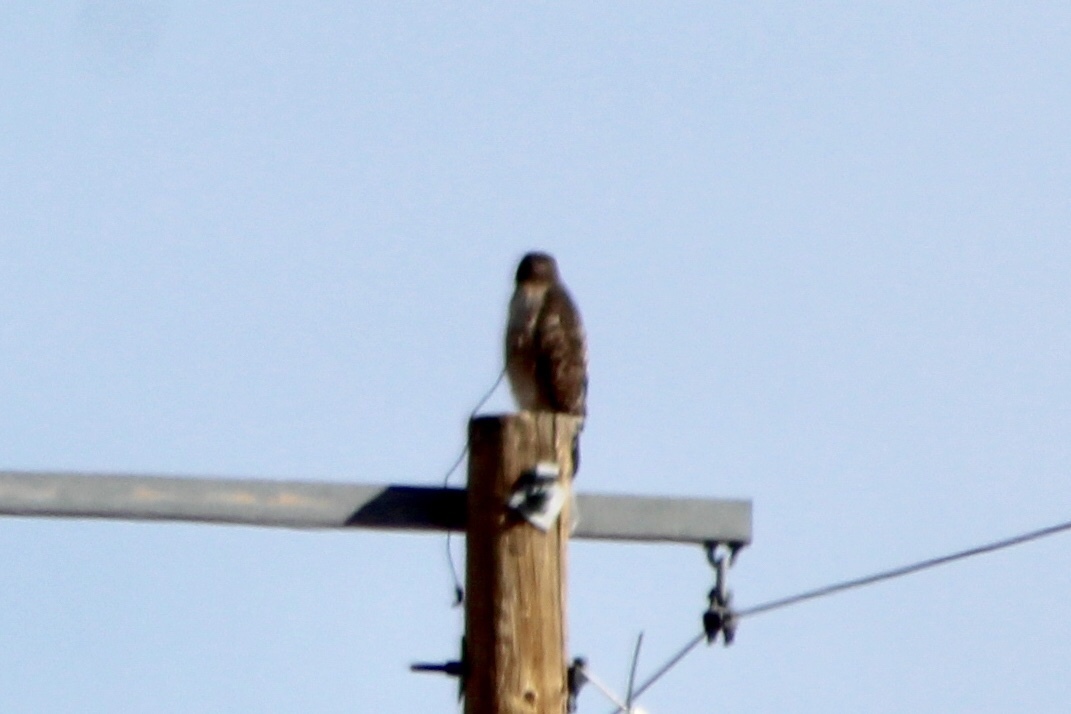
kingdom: Animalia
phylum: Chordata
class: Aves
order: Accipitriformes
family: Accipitridae
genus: Buteo
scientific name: Buteo jamaicensis
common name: Red-tailed hawk
